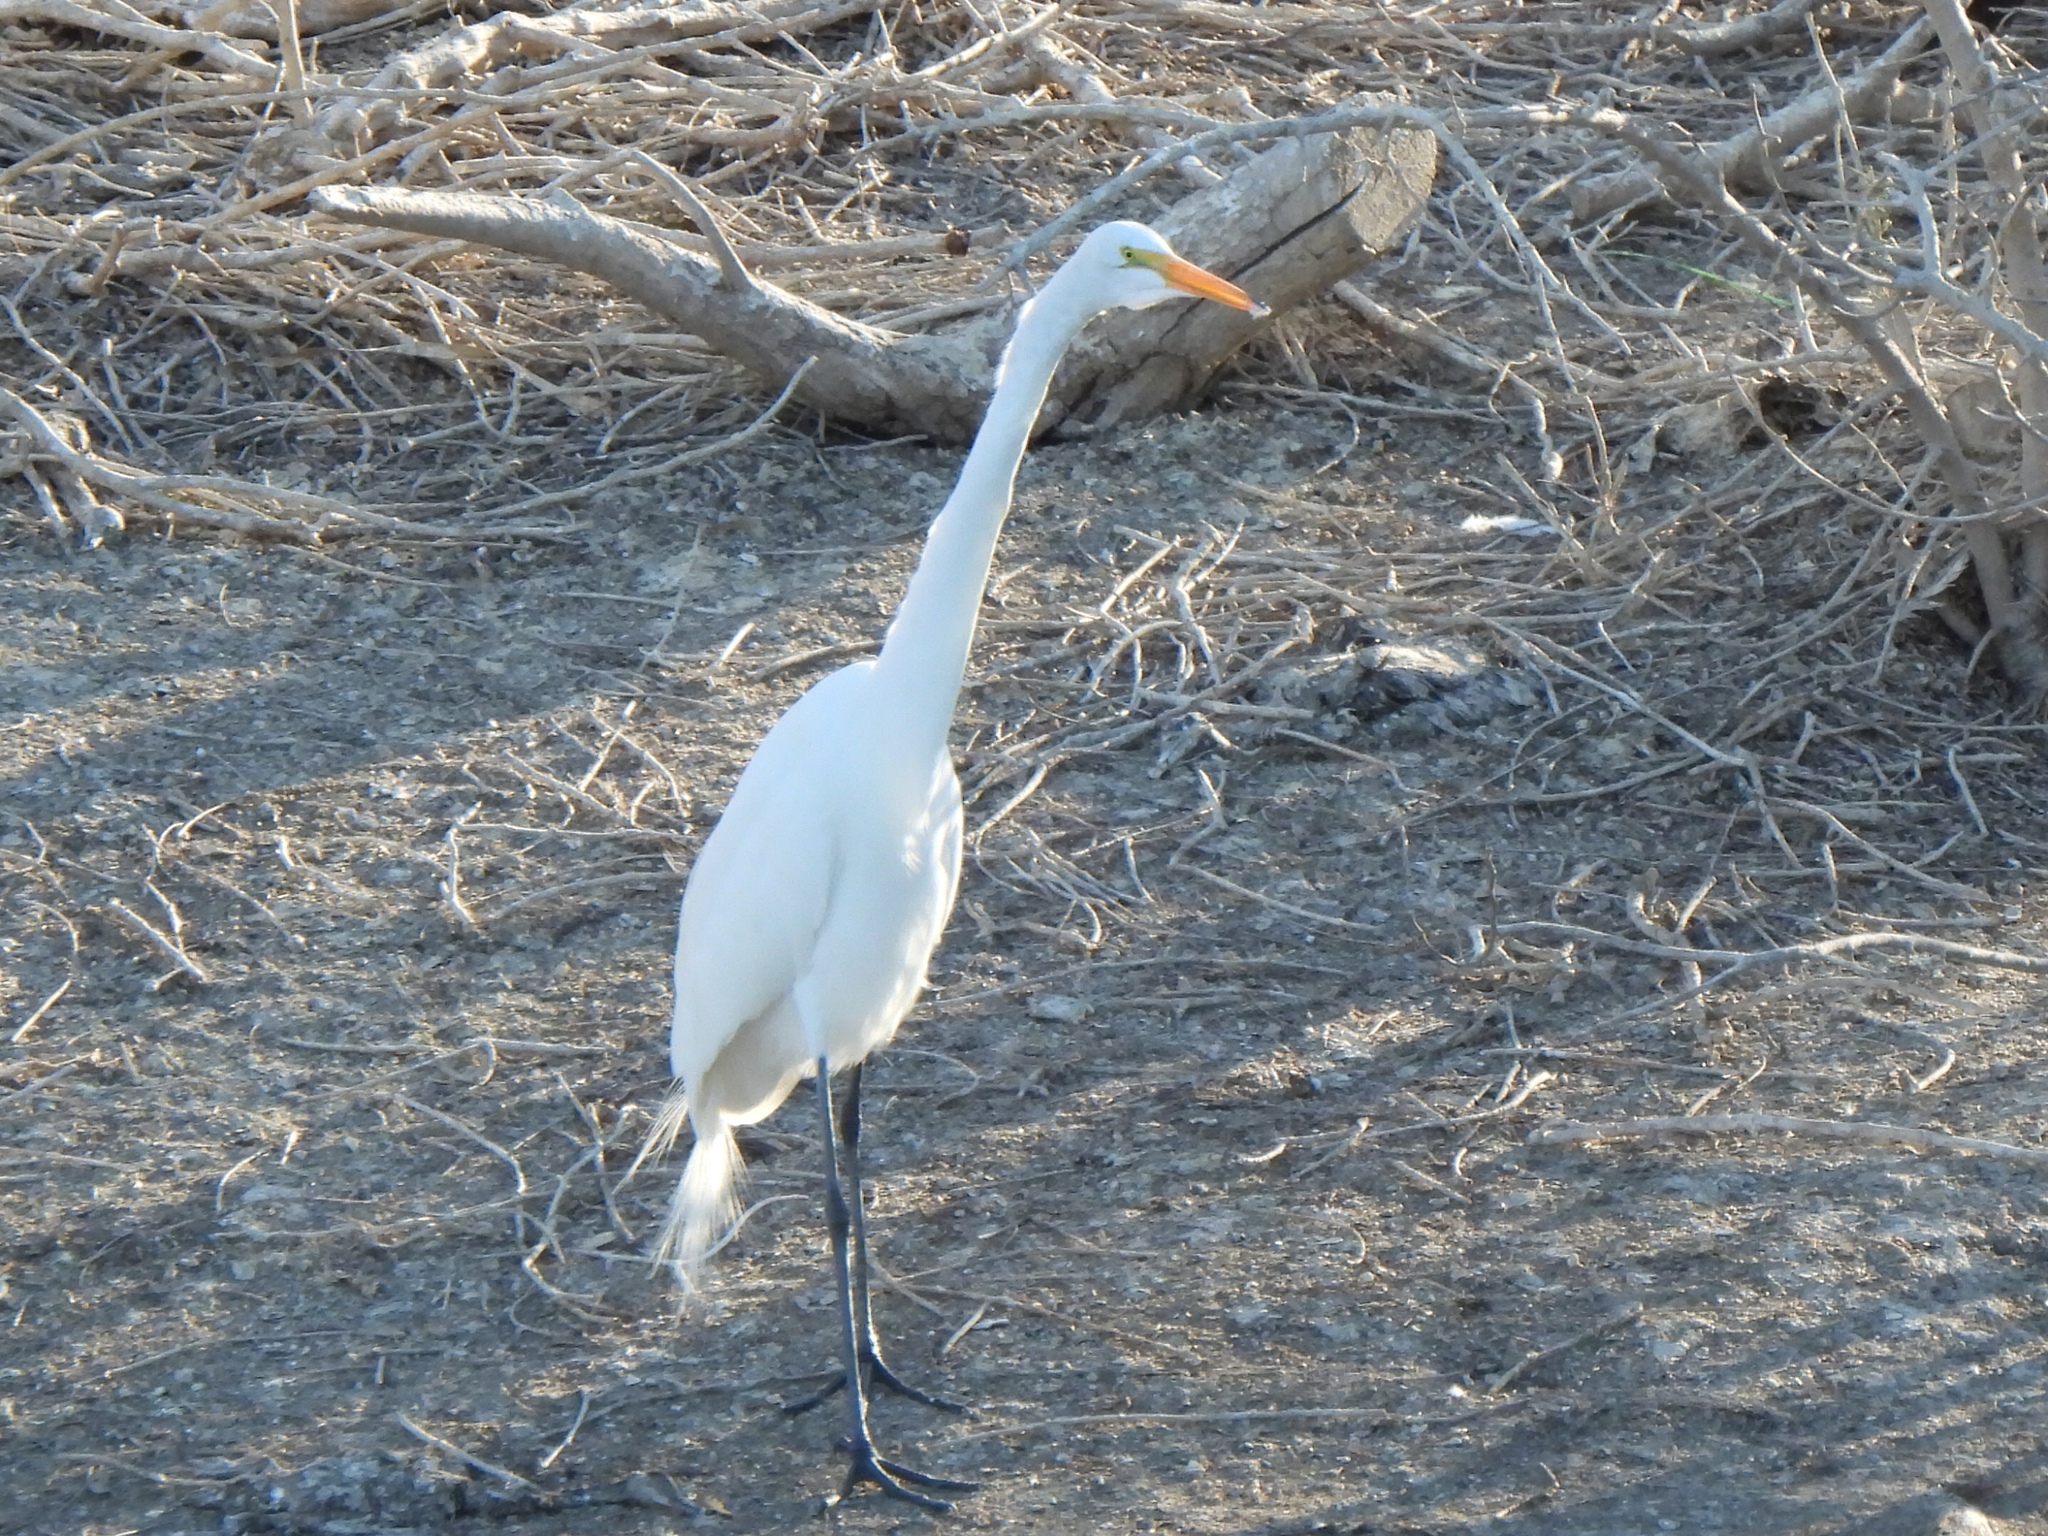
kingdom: Animalia
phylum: Chordata
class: Aves
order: Pelecaniformes
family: Ardeidae
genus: Ardea
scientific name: Ardea alba
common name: Great egret
